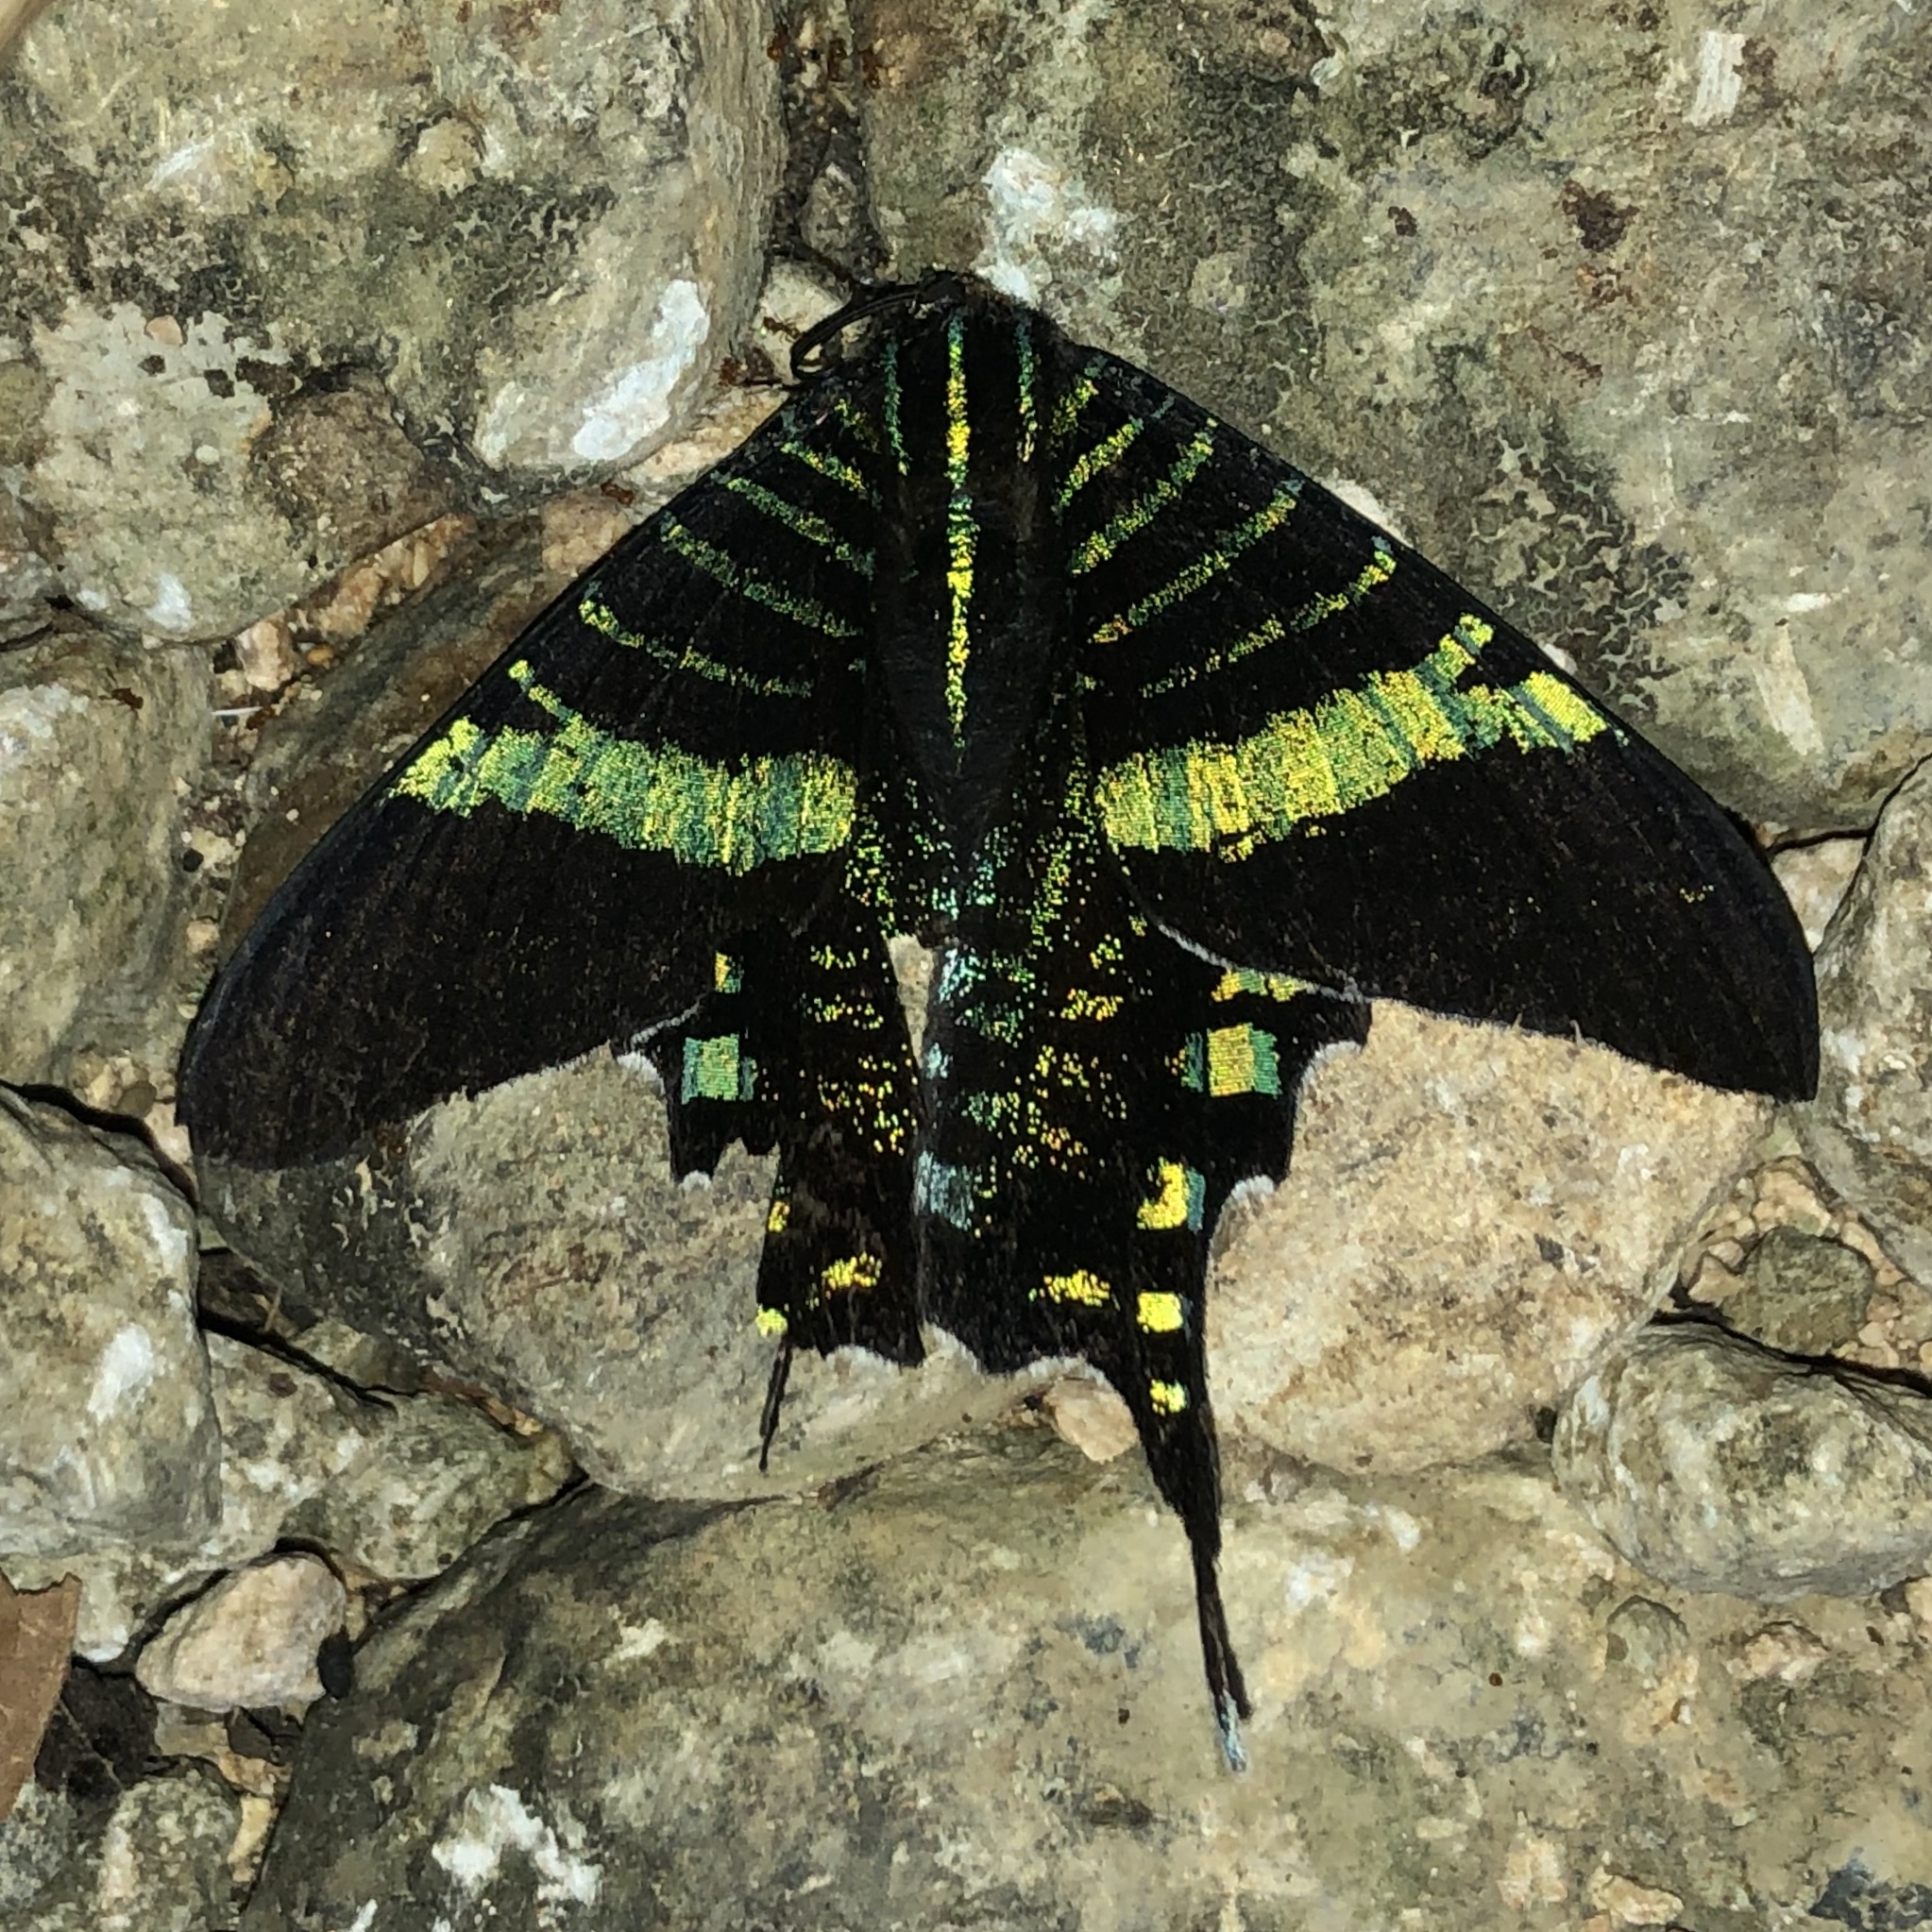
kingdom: Animalia
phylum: Arthropoda
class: Insecta
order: Lepidoptera
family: Uraniidae
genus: Urania
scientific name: Urania fulgens
